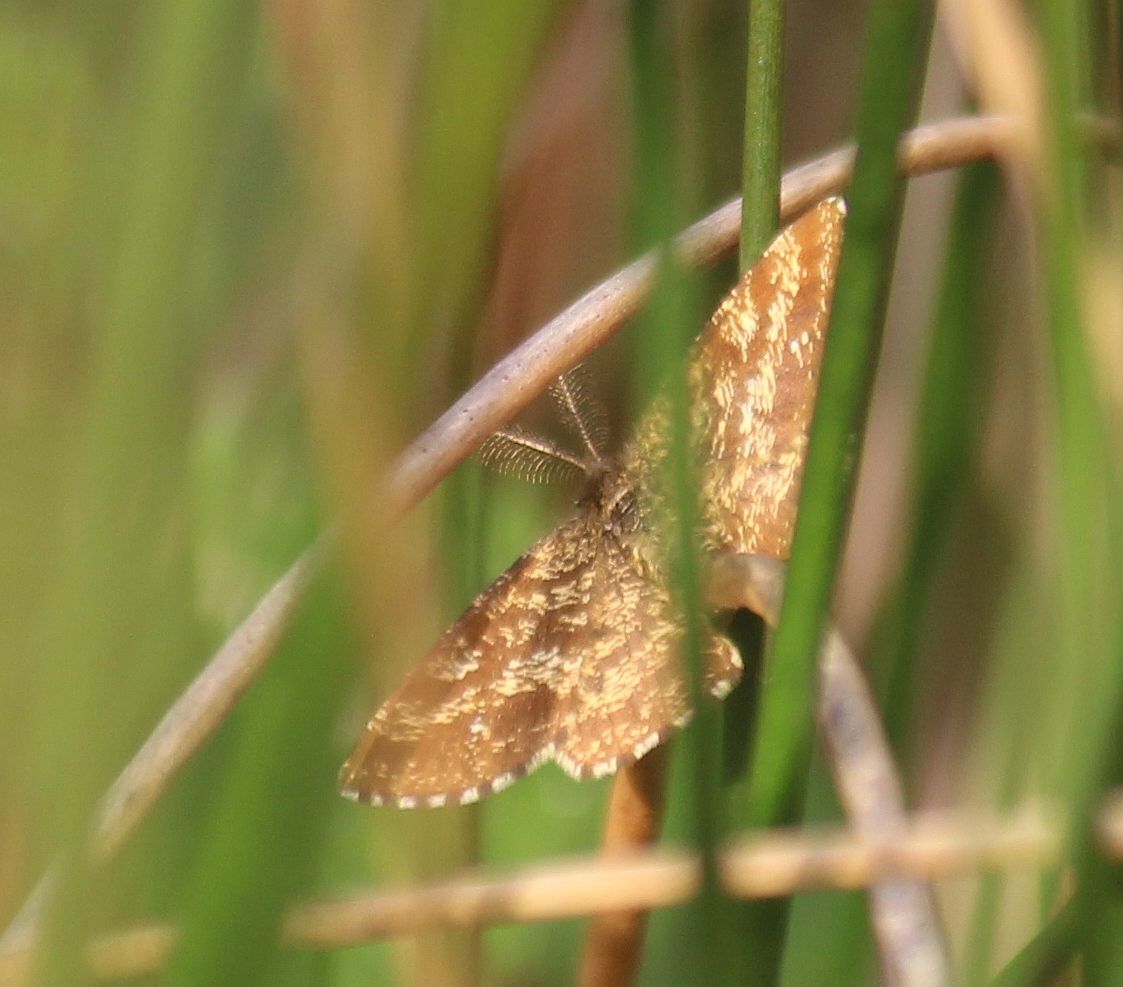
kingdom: Animalia
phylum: Arthropoda
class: Insecta
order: Lepidoptera
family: Geometridae
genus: Ematurga
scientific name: Ematurga atomaria
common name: Common heath
